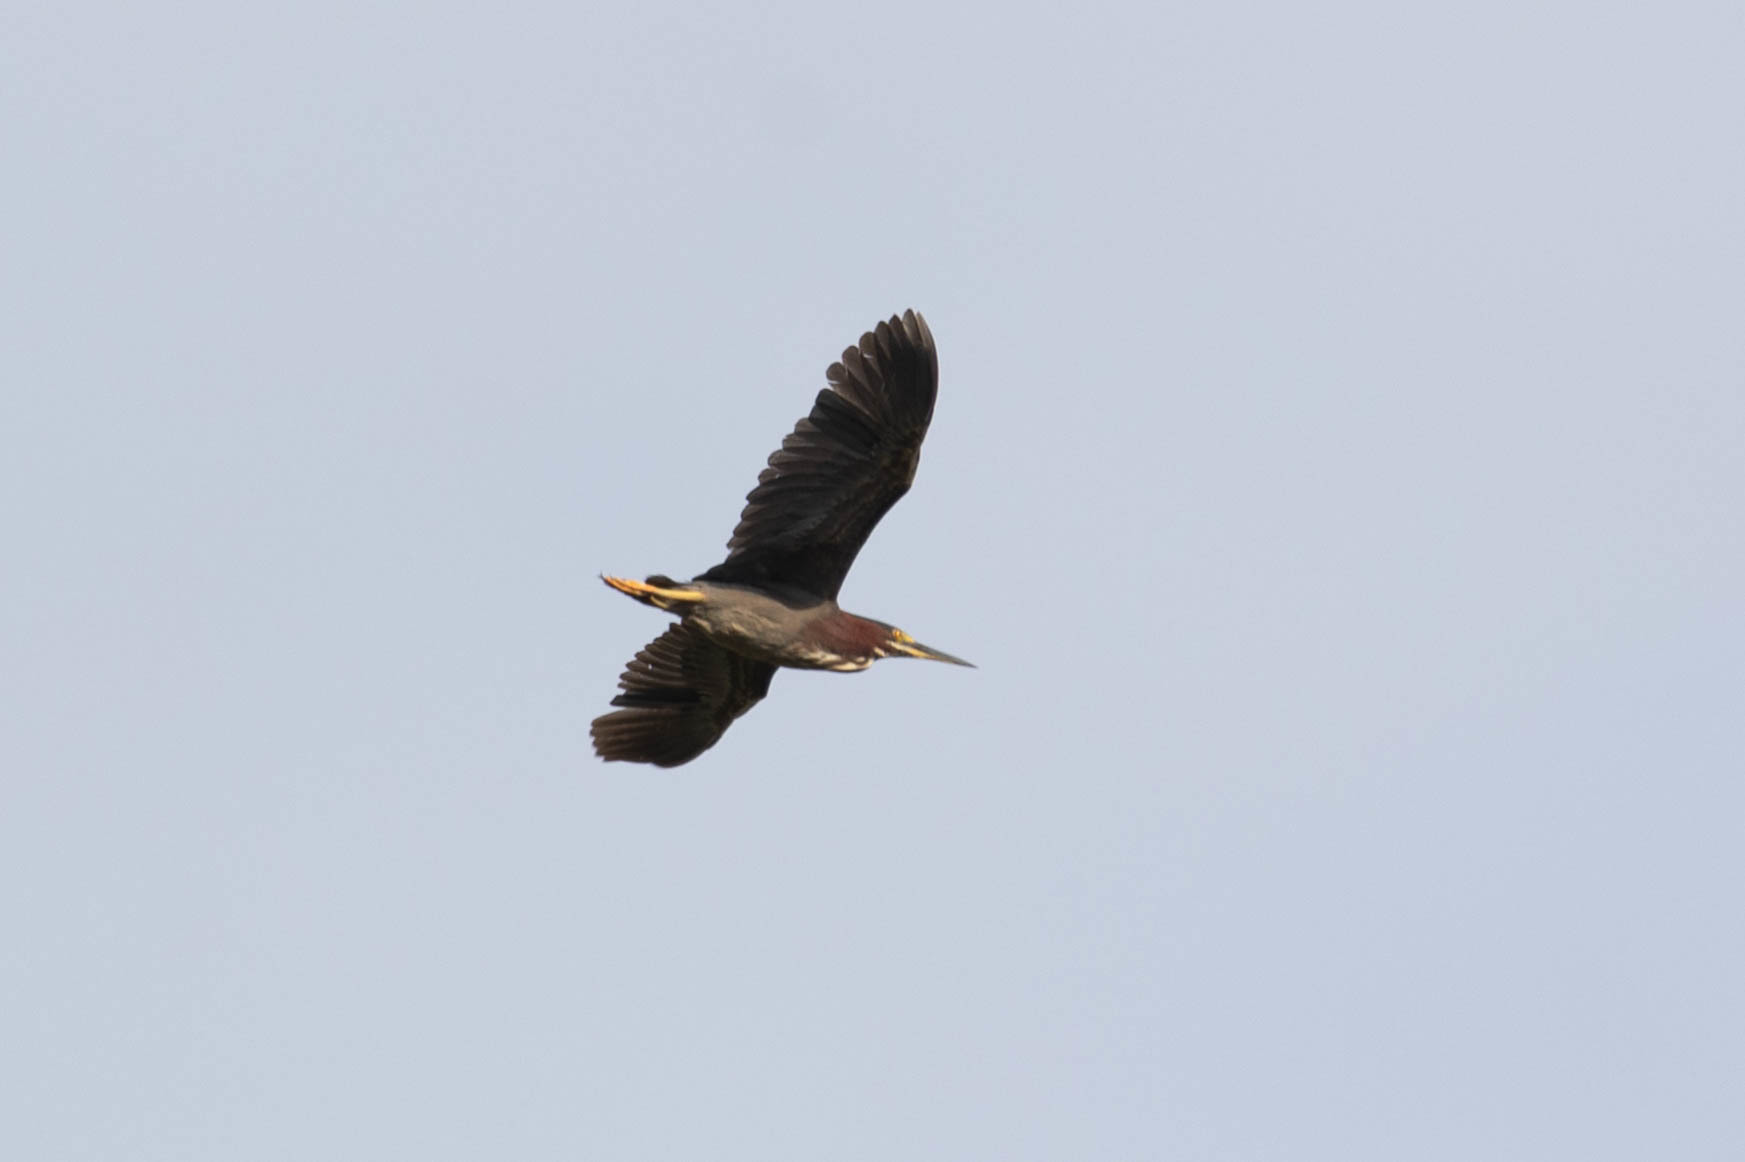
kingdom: Animalia
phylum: Chordata
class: Aves
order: Pelecaniformes
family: Ardeidae
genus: Butorides
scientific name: Butorides virescens
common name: Green heron
